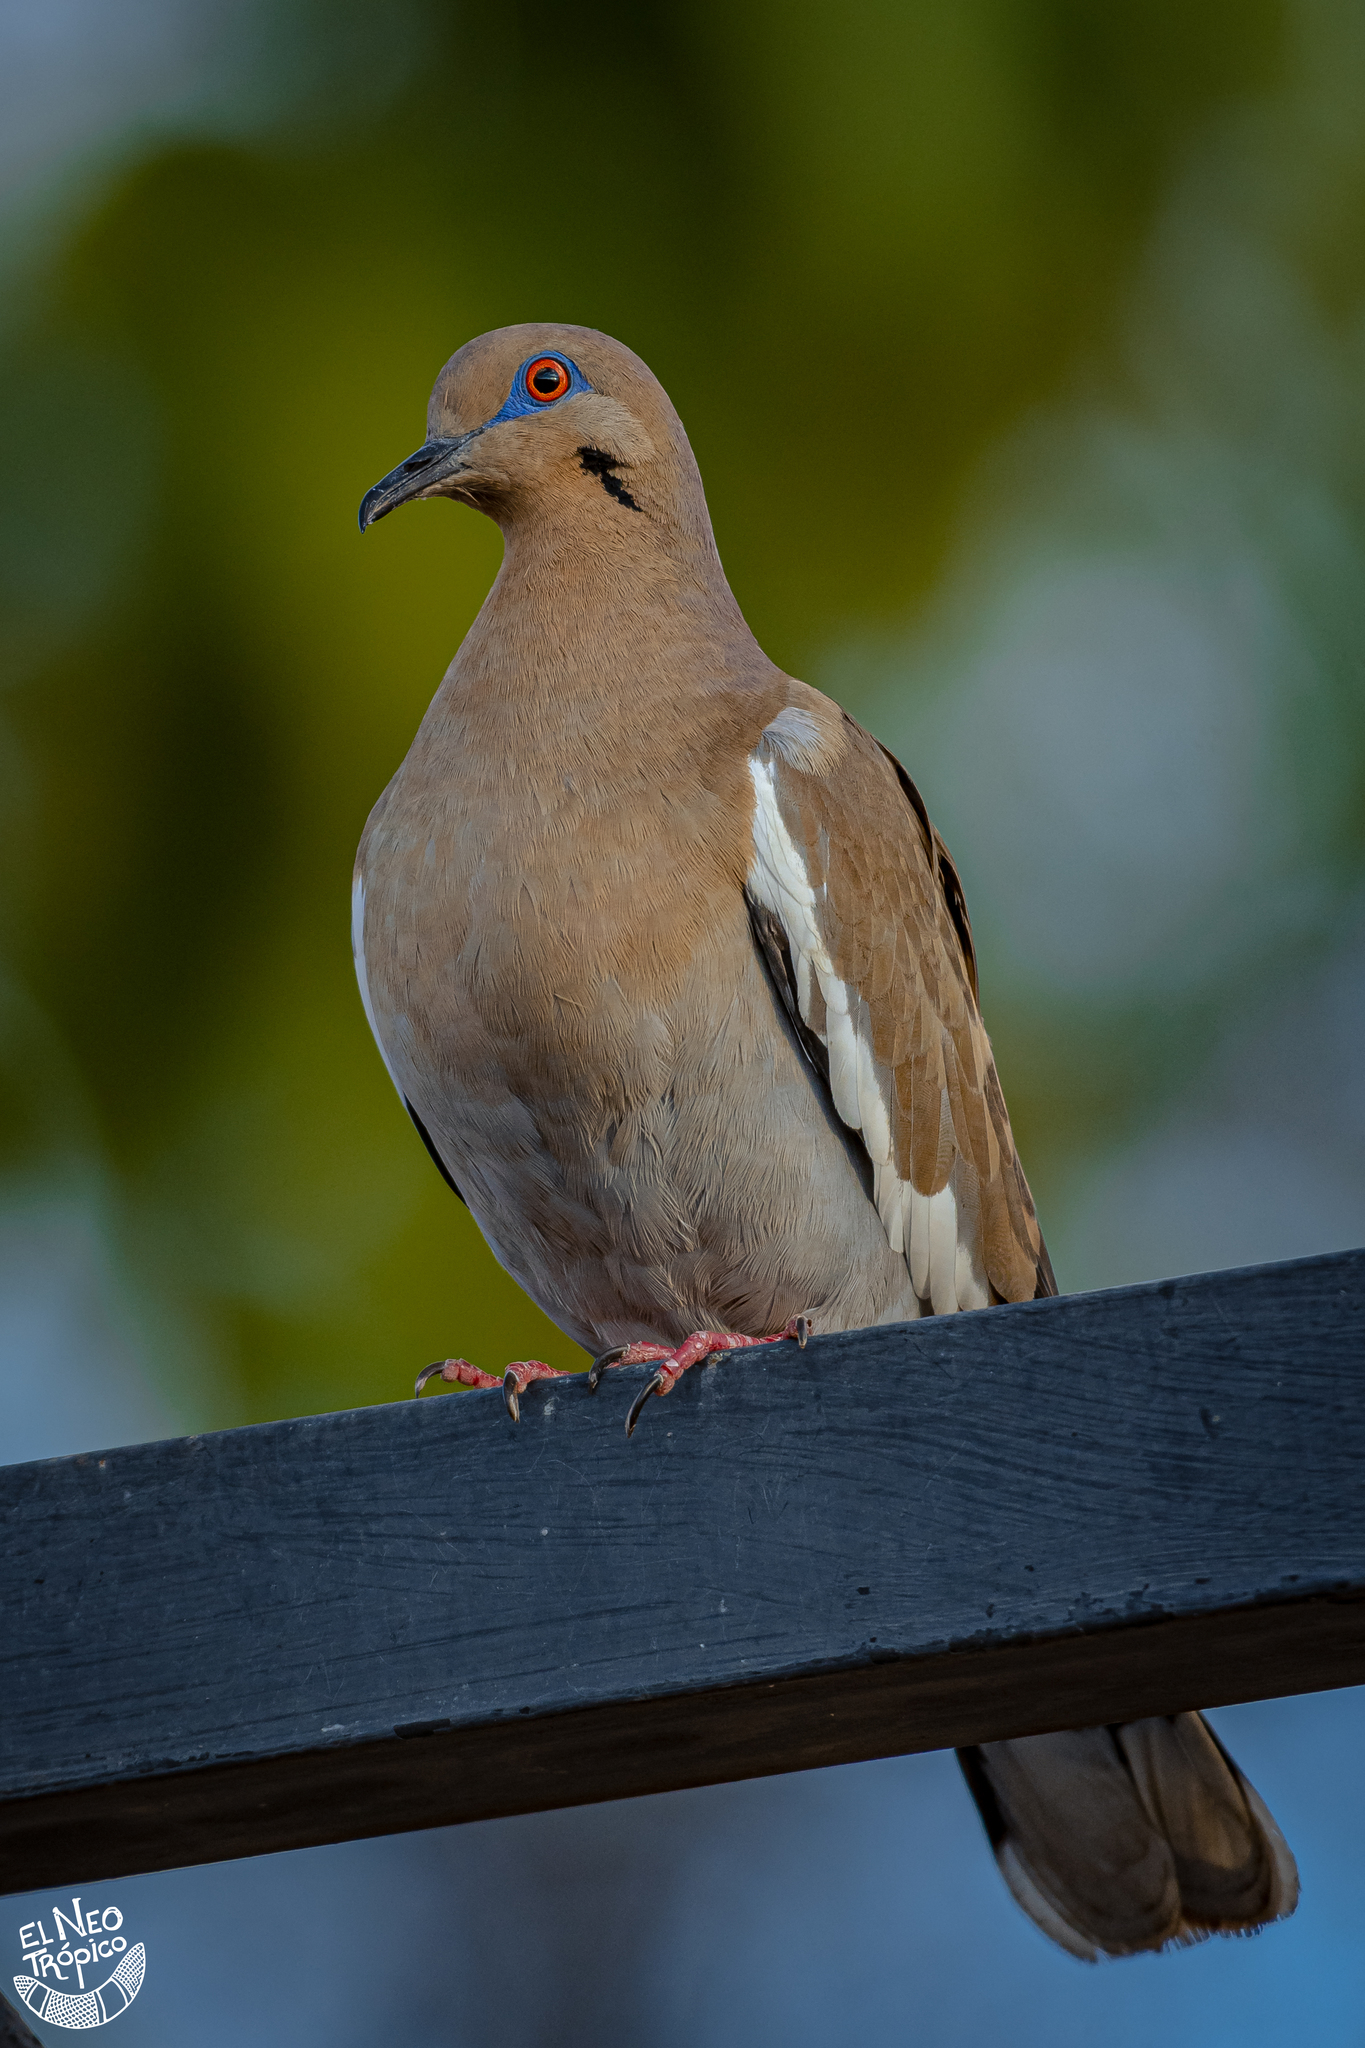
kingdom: Animalia
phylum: Chordata
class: Aves
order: Columbiformes
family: Columbidae
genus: Zenaida
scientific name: Zenaida asiatica
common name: White-winged dove
